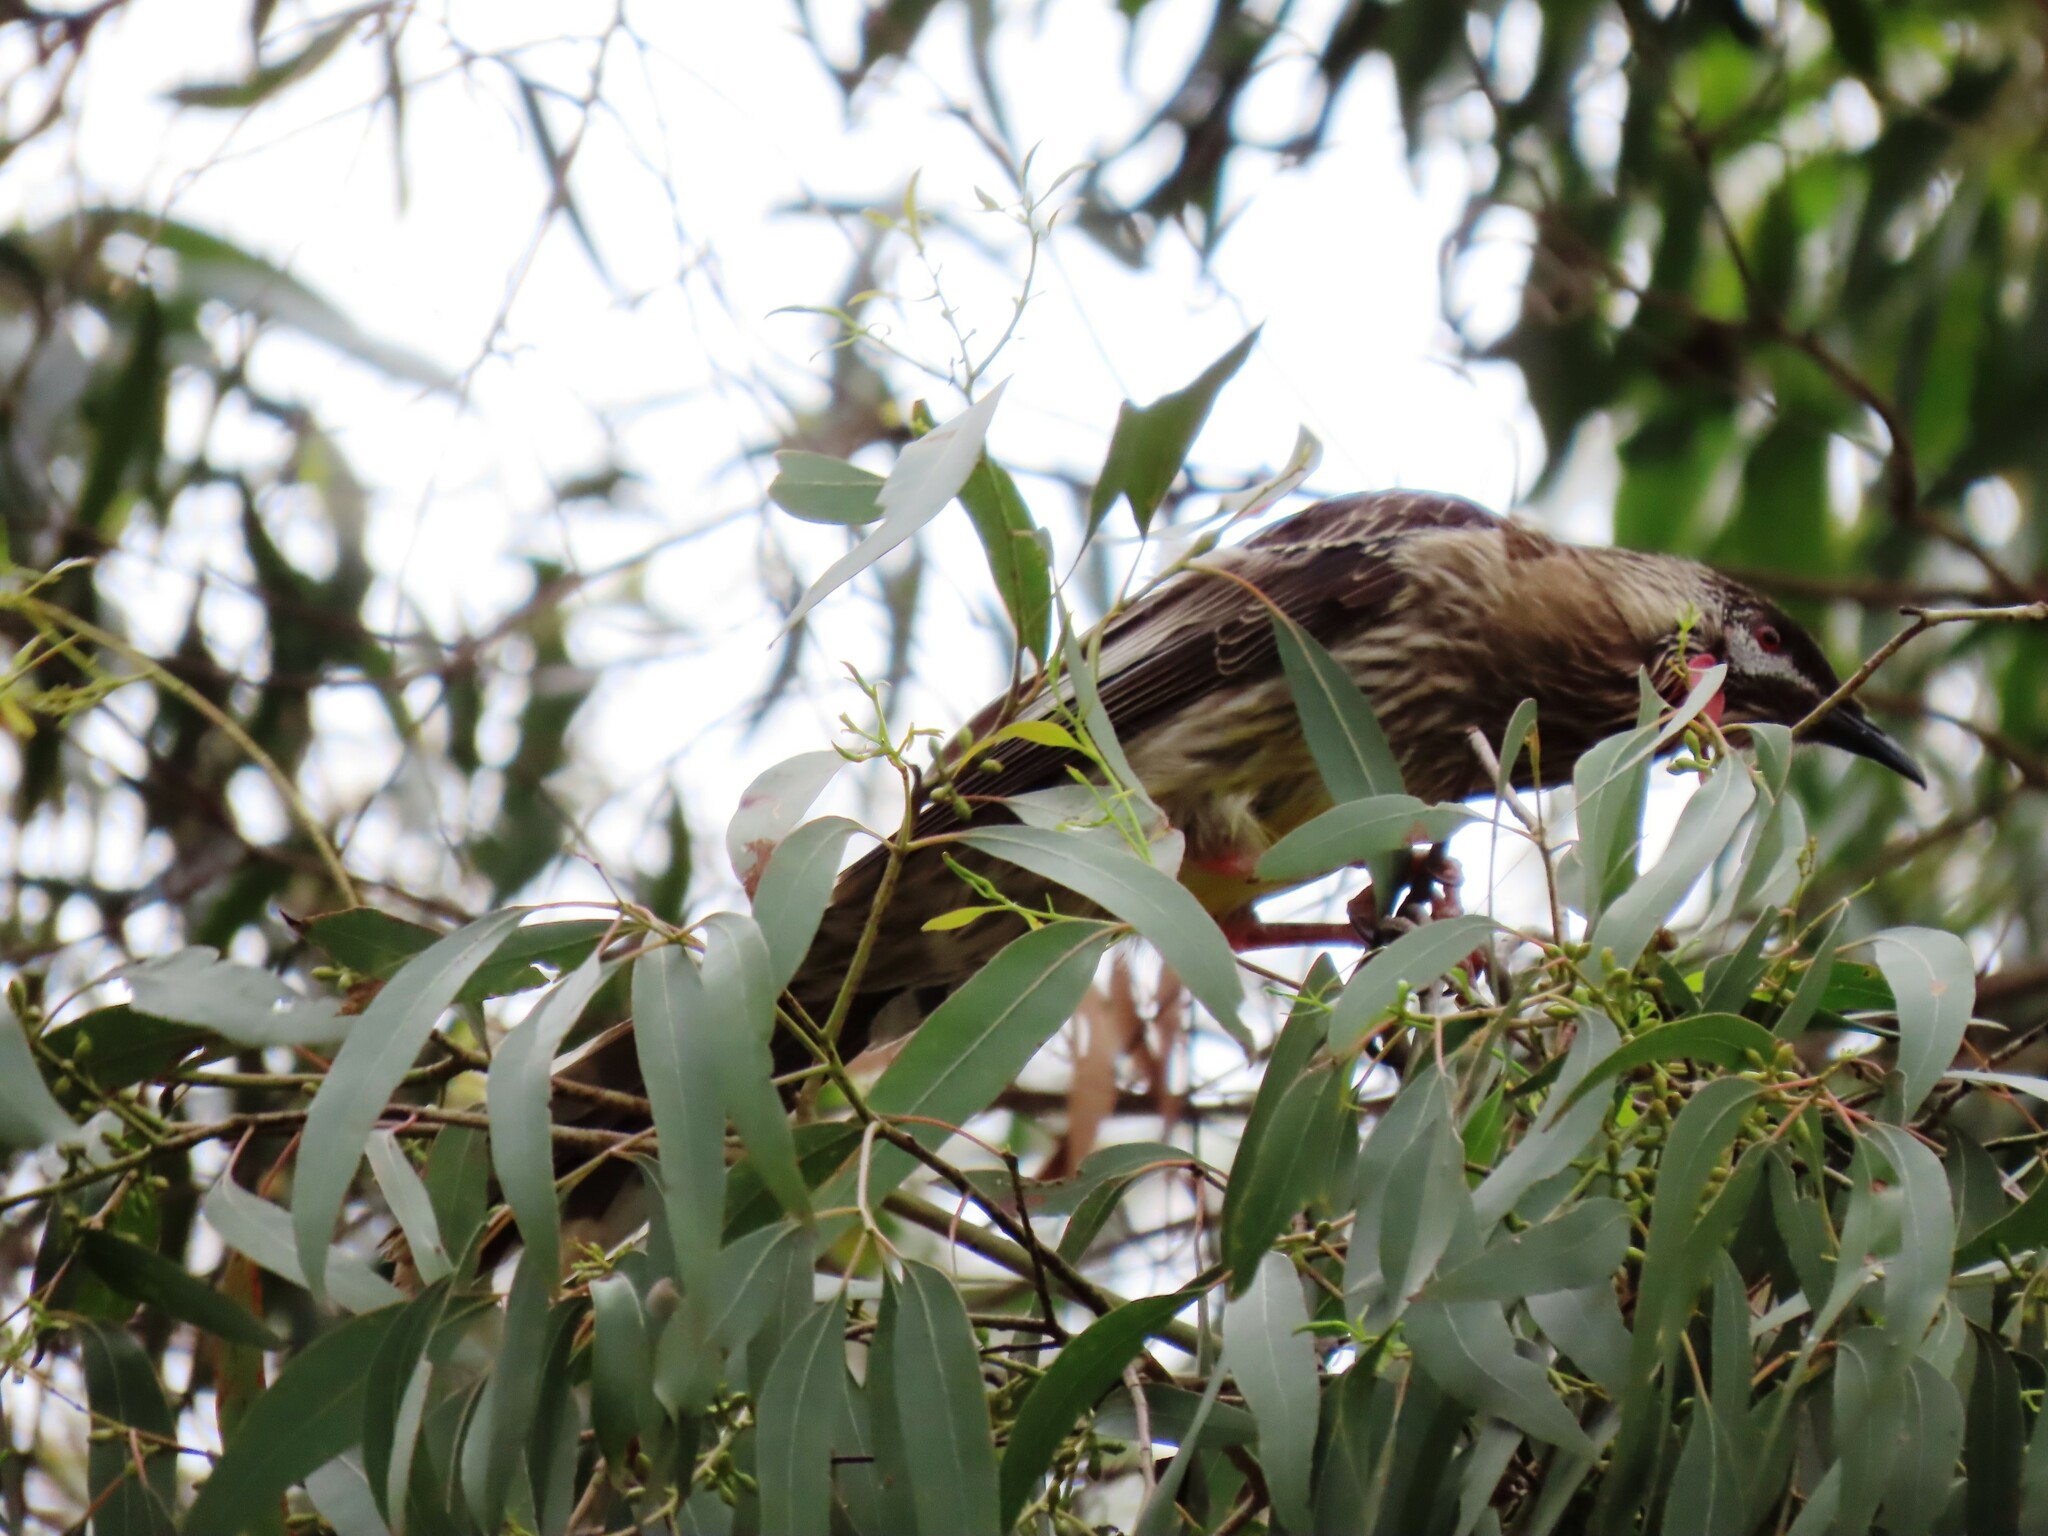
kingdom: Animalia
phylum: Chordata
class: Aves
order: Passeriformes
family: Meliphagidae
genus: Anthochaera
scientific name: Anthochaera carunculata
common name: Red wattlebird
